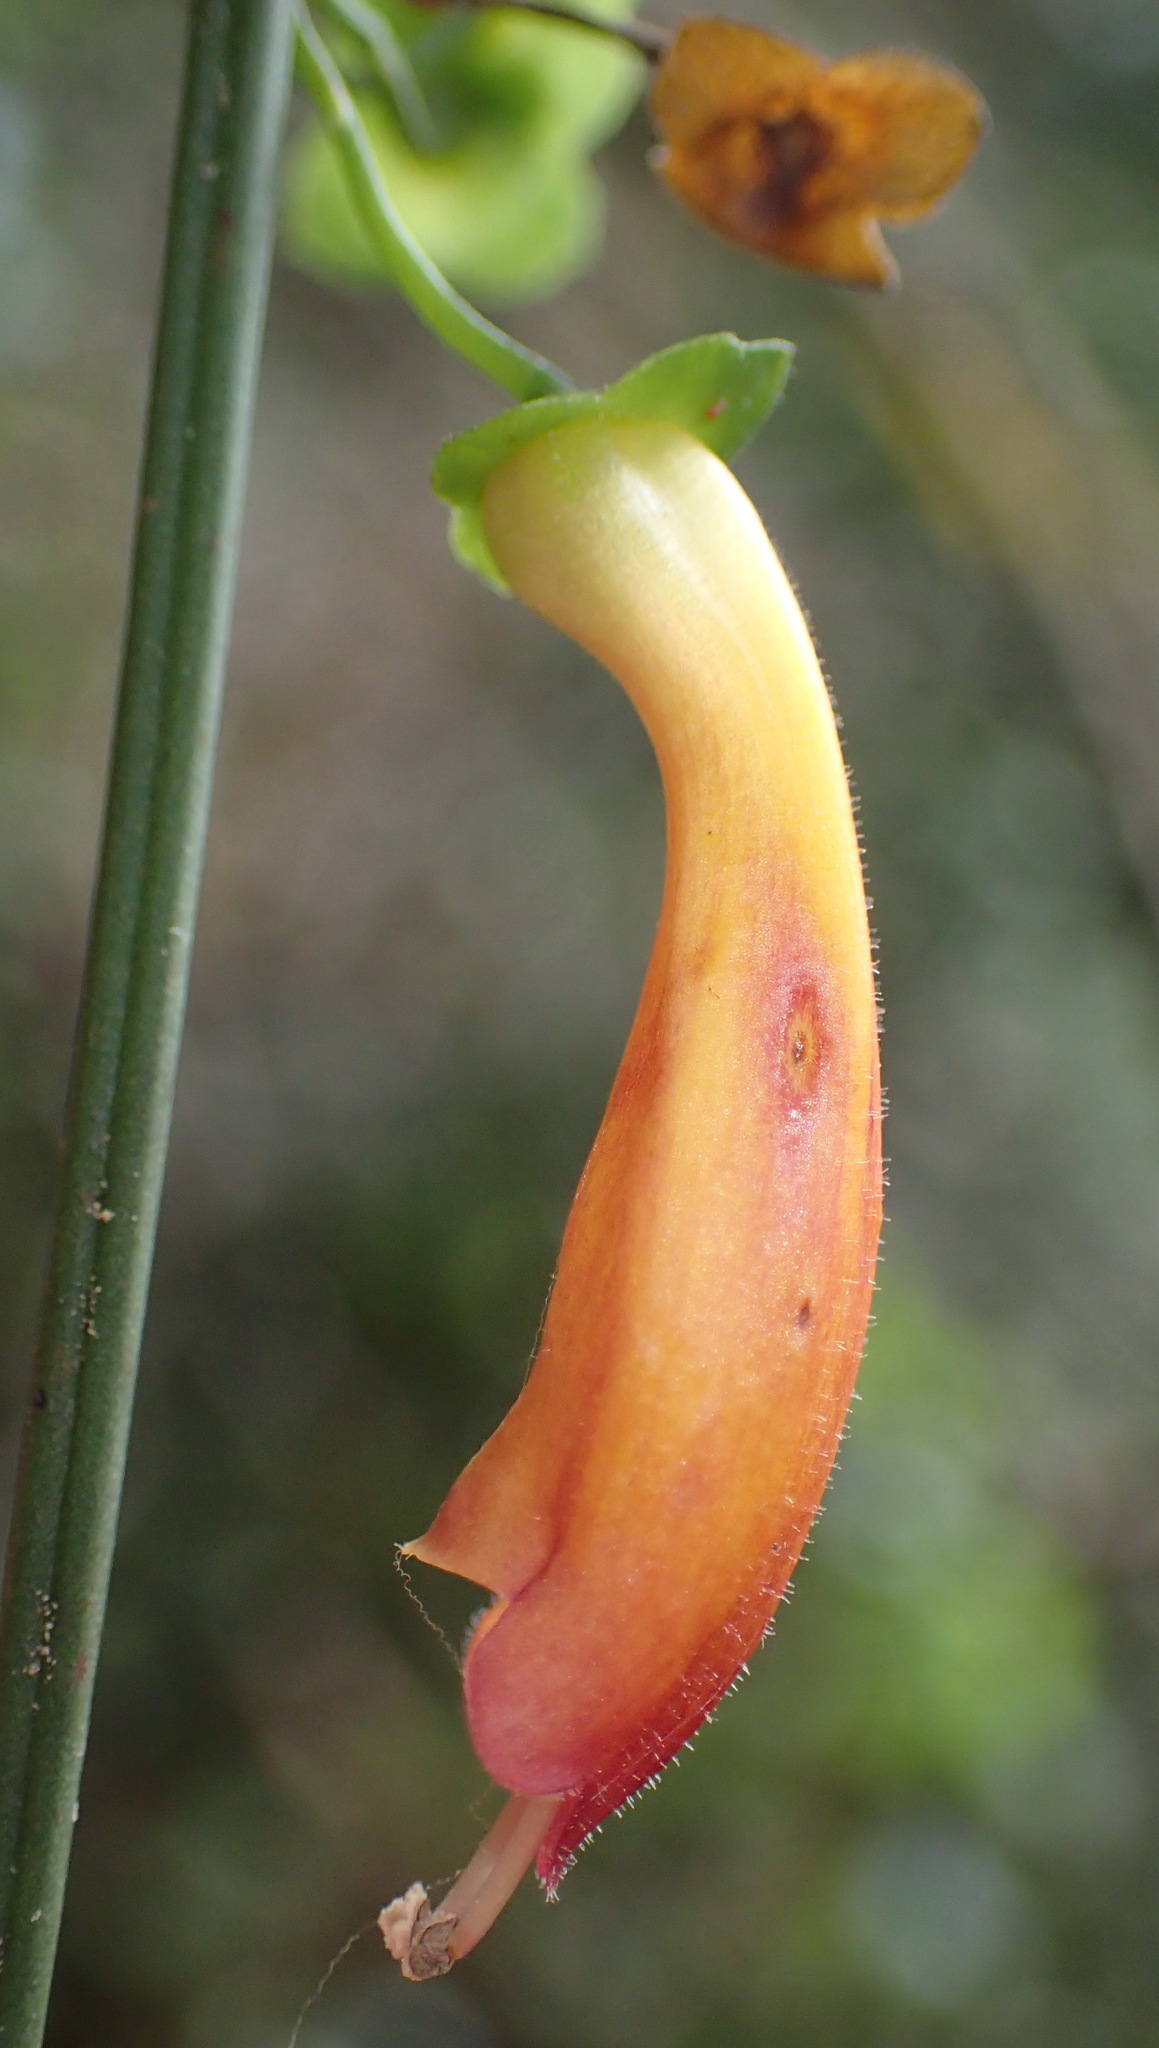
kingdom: Plantae
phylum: Tracheophyta
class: Magnoliopsida
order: Lamiales
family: Stilbaceae
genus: Halleria
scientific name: Halleria lucida
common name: Tree fuschia
